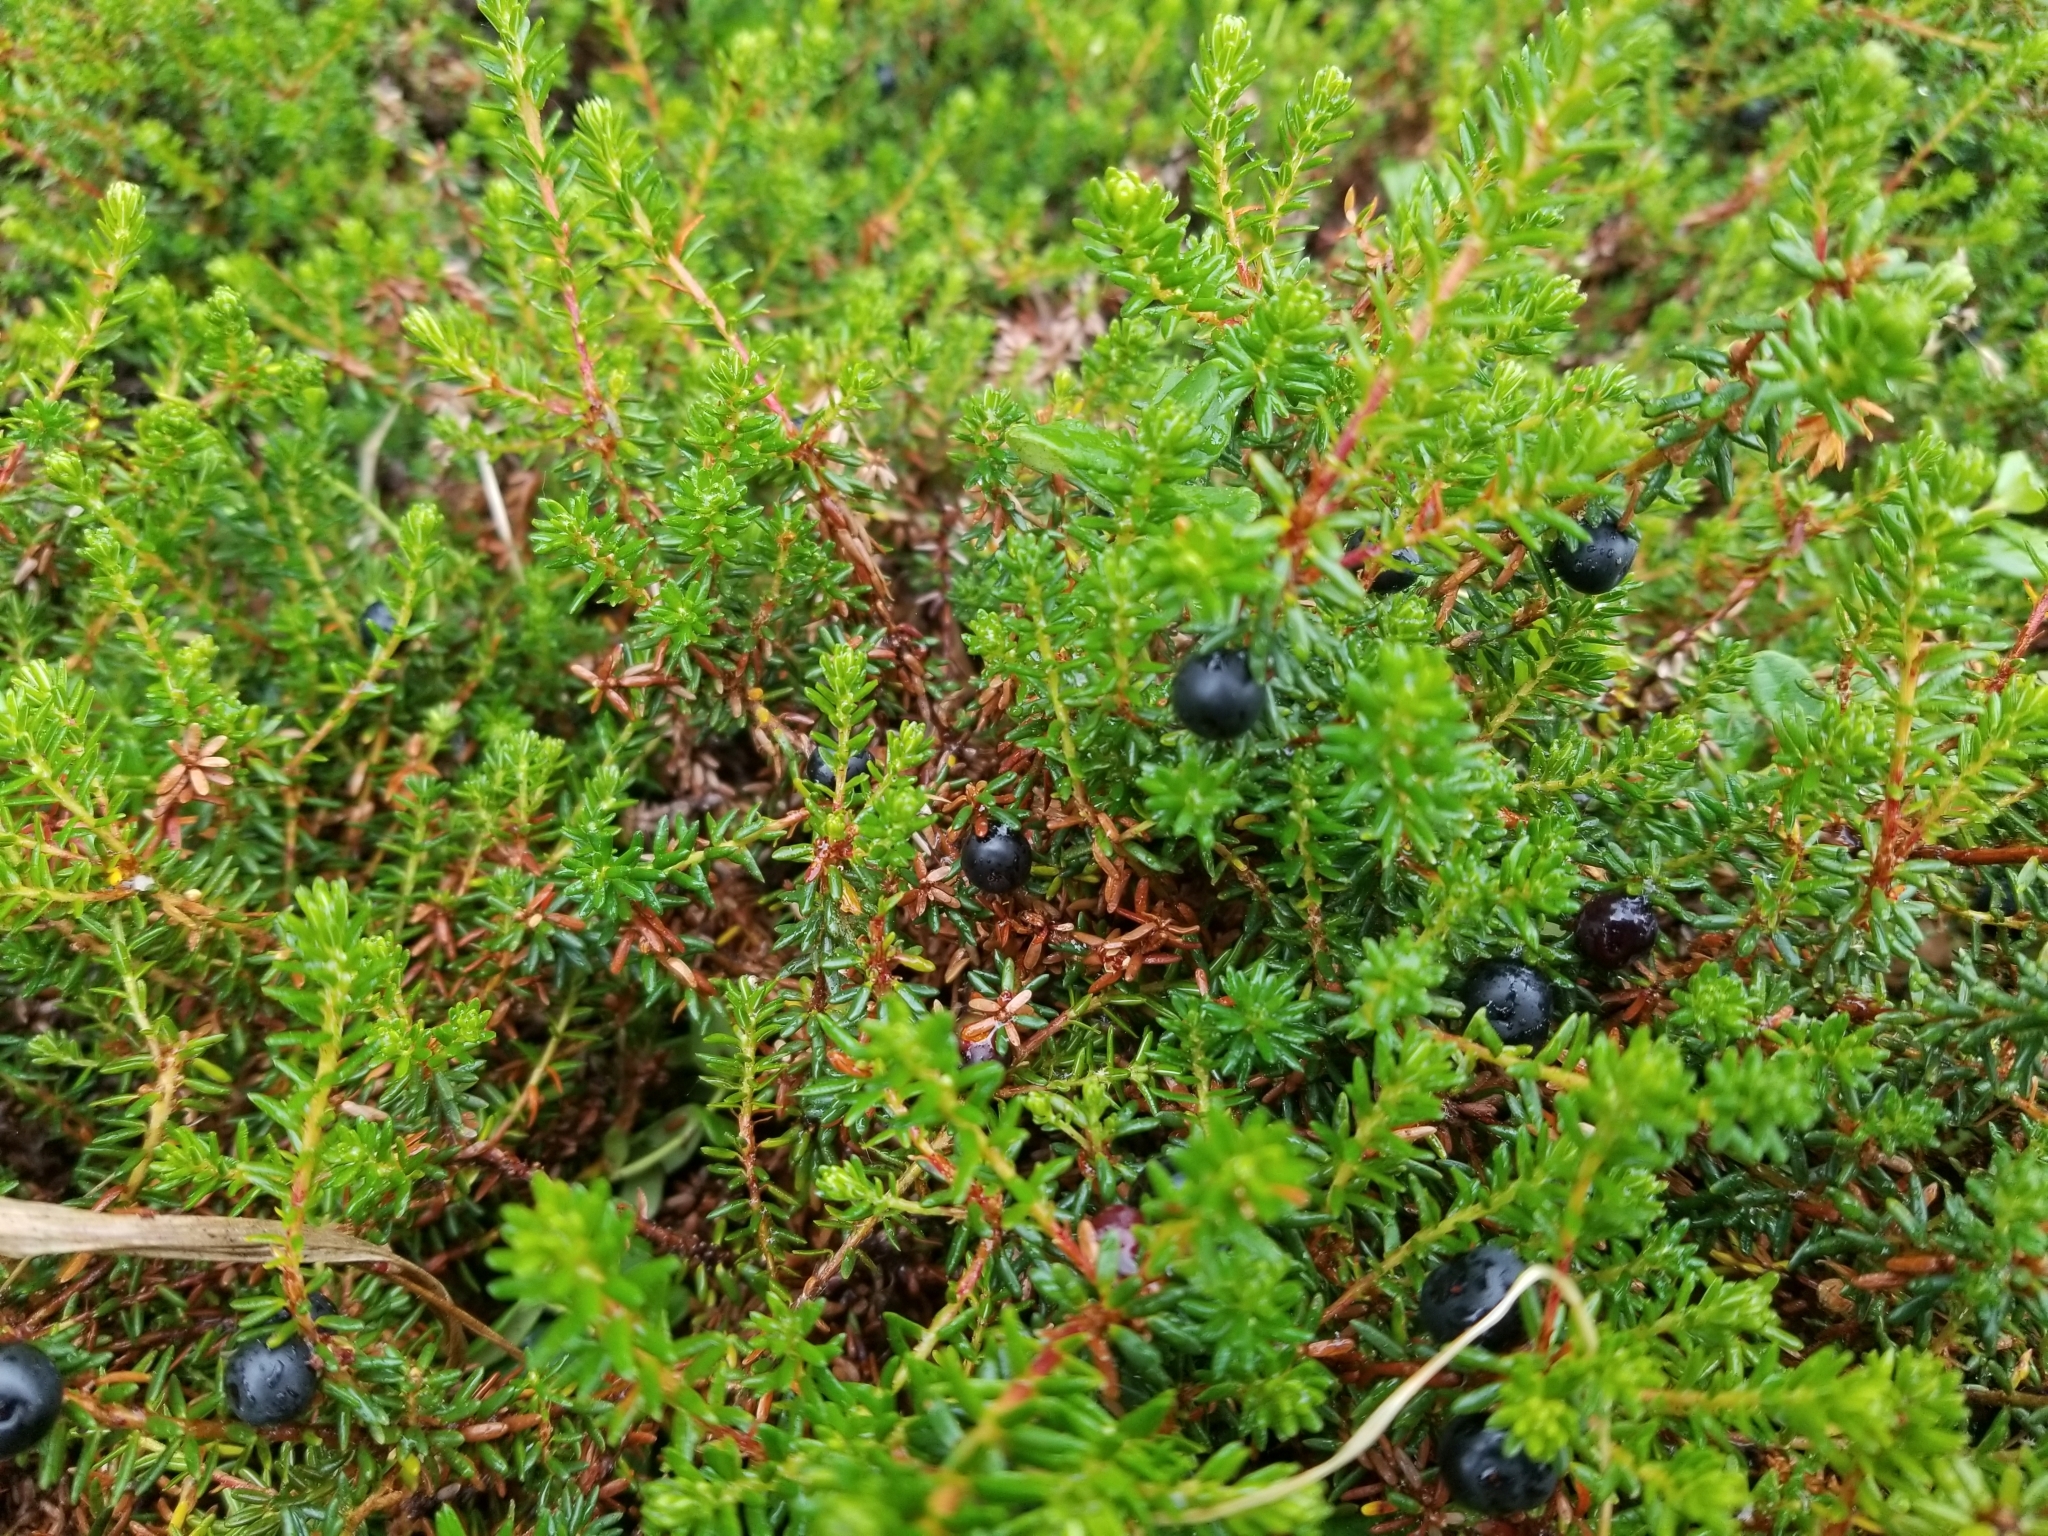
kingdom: Plantae
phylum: Tracheophyta
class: Magnoliopsida
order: Ericales
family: Ericaceae
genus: Empetrum
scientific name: Empetrum nigrum
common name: Black crowberry
